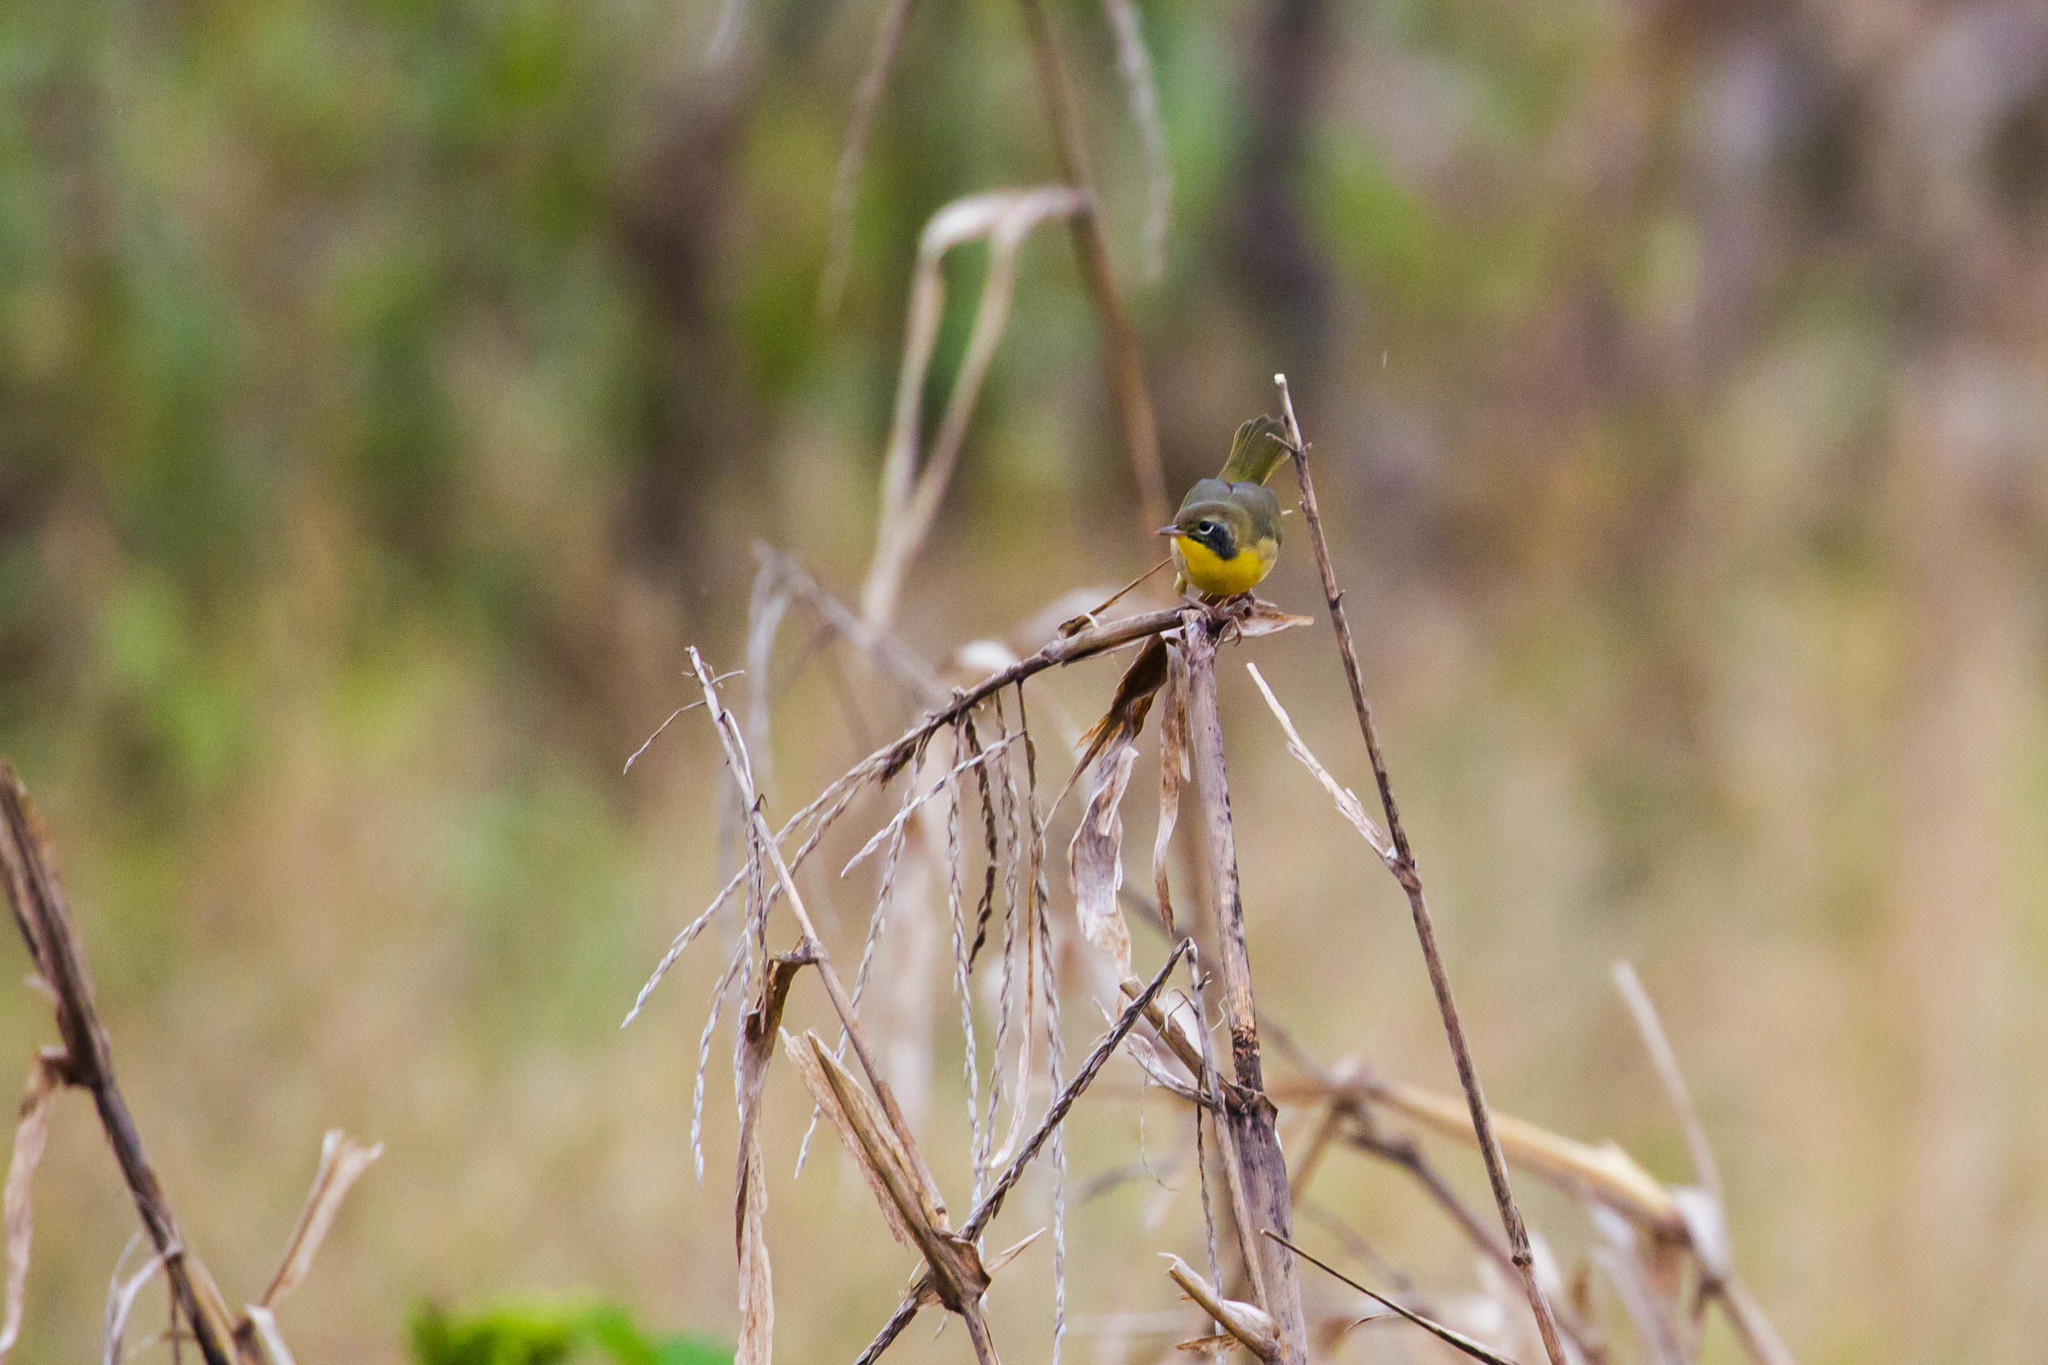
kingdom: Animalia
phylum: Chordata
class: Aves
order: Passeriformes
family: Parulidae
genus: Geothlypis
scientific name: Geothlypis trichas
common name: Common yellowthroat
